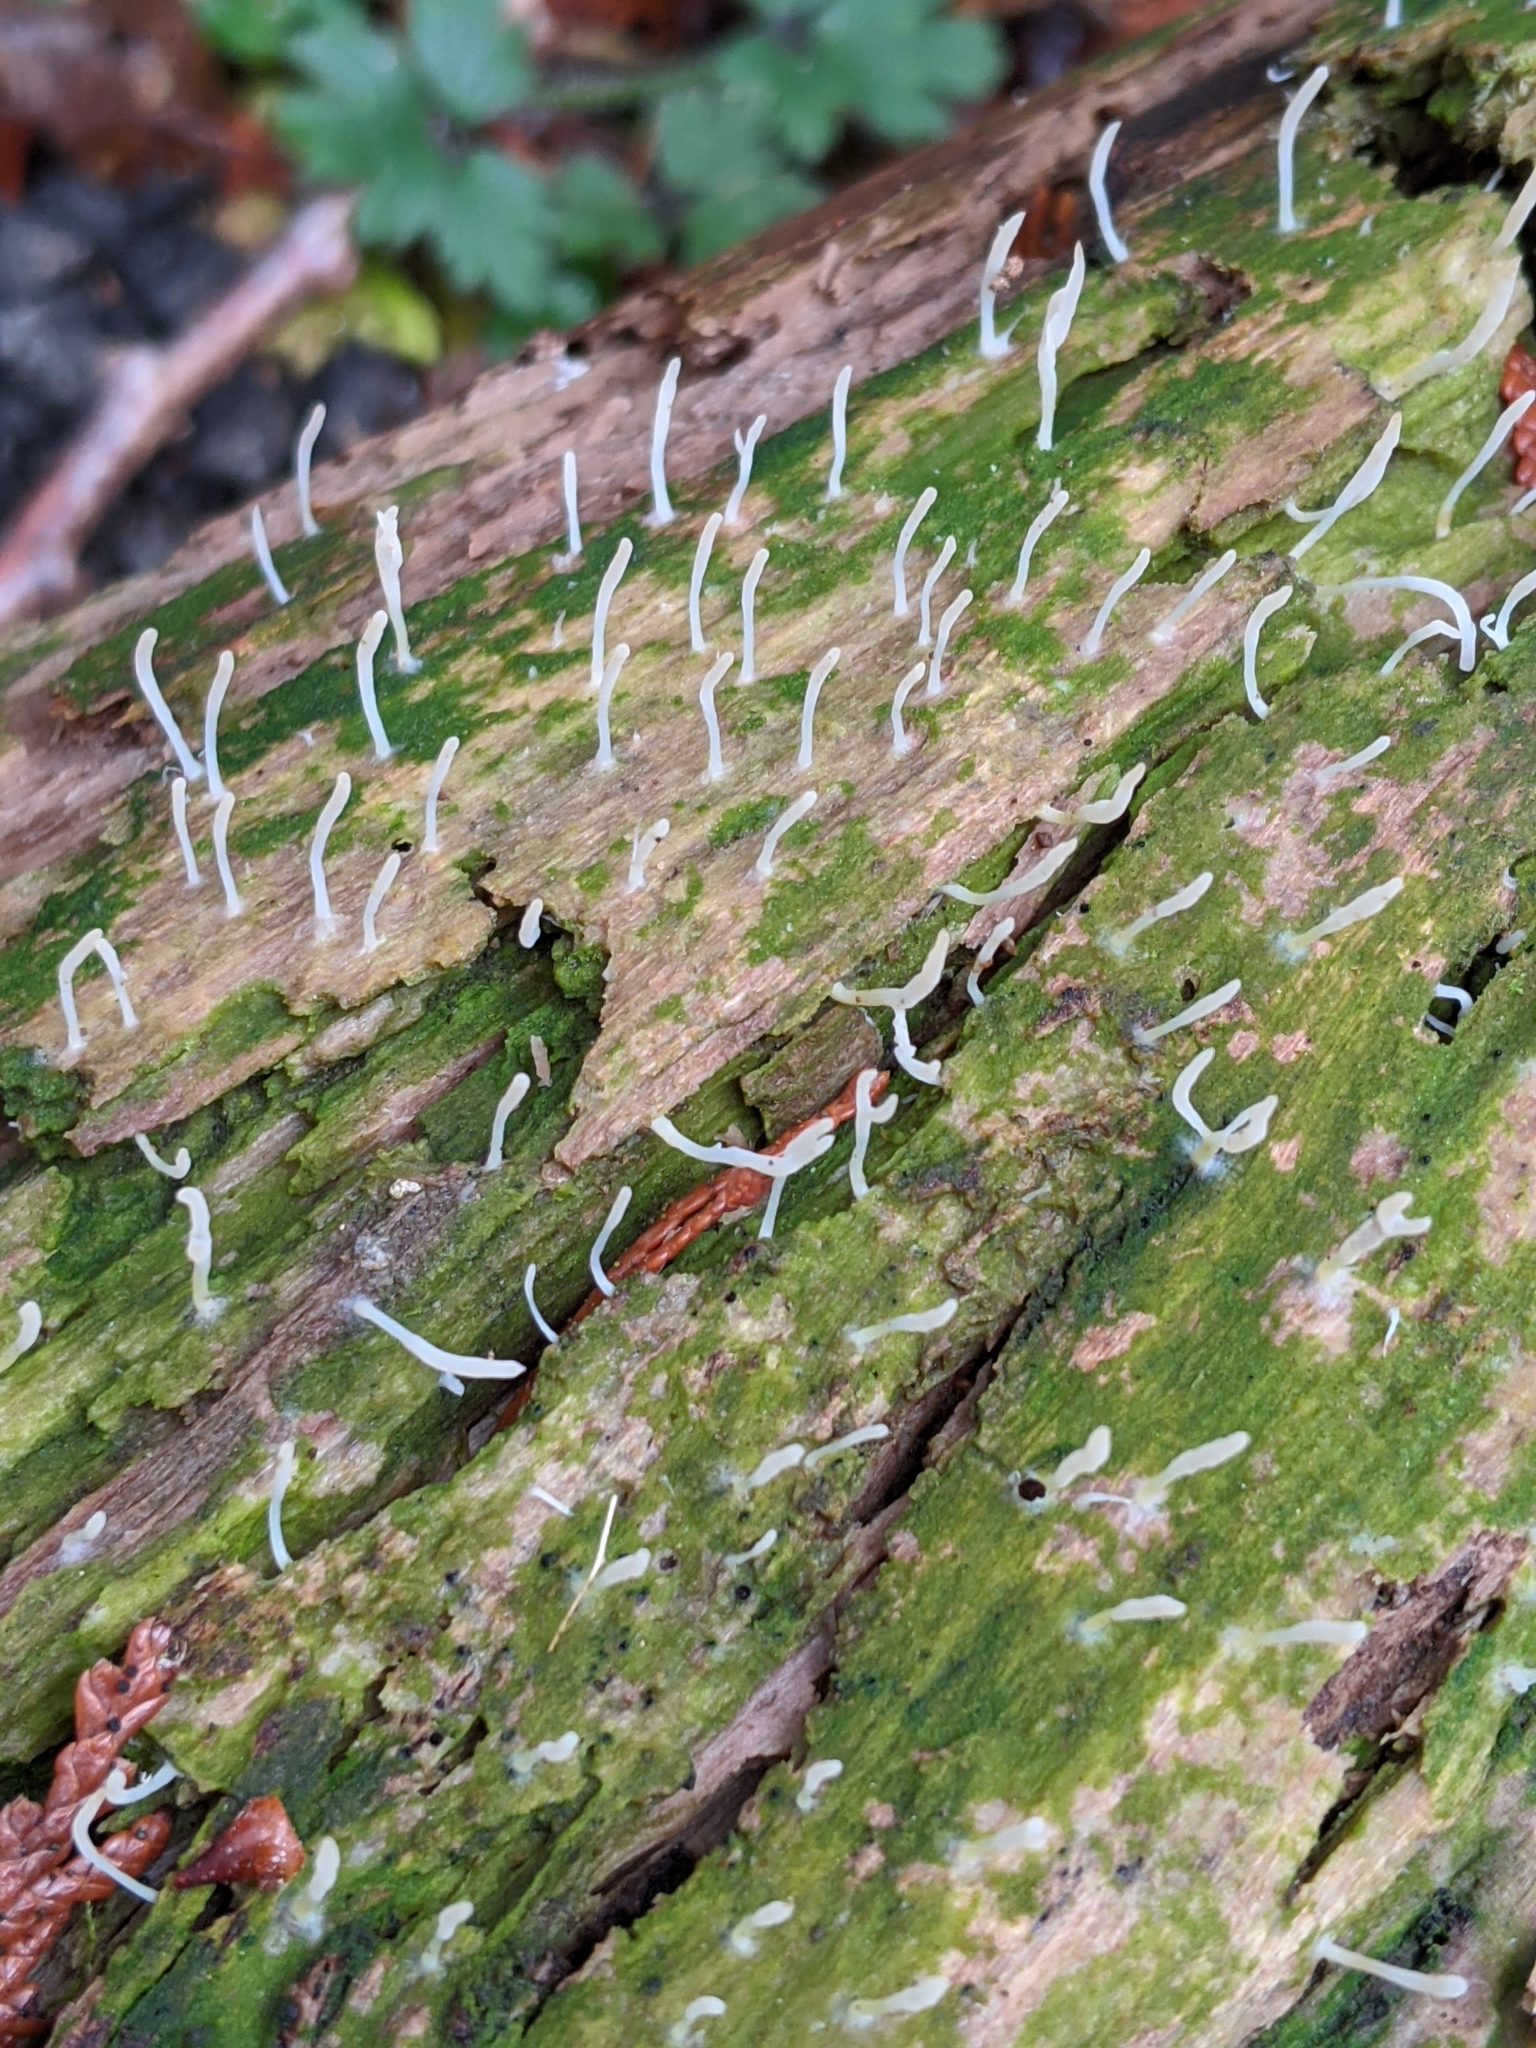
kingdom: Fungi
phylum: Basidiomycota
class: Agaricomycetes
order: Cantharellales
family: Hydnaceae
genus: Multiclavula
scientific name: Multiclavula mucida
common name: White green-algae coral
